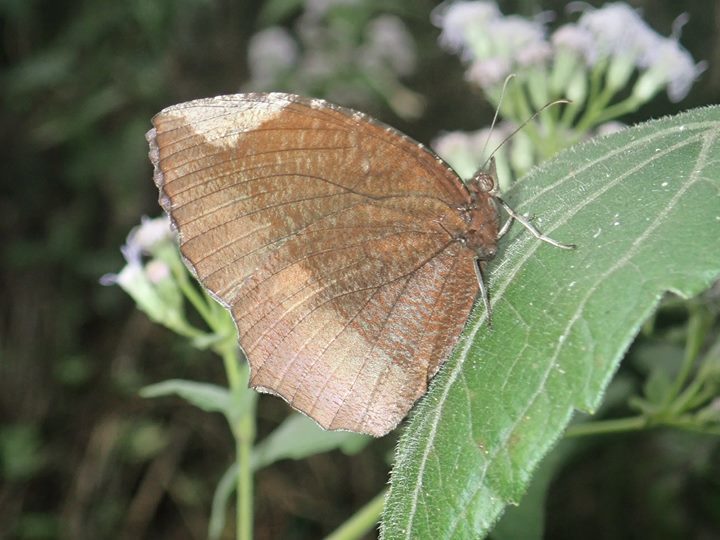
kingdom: Animalia
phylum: Arthropoda
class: Insecta
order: Lepidoptera
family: Nymphalidae
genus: Elymnias
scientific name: Elymnias hypermnestra
